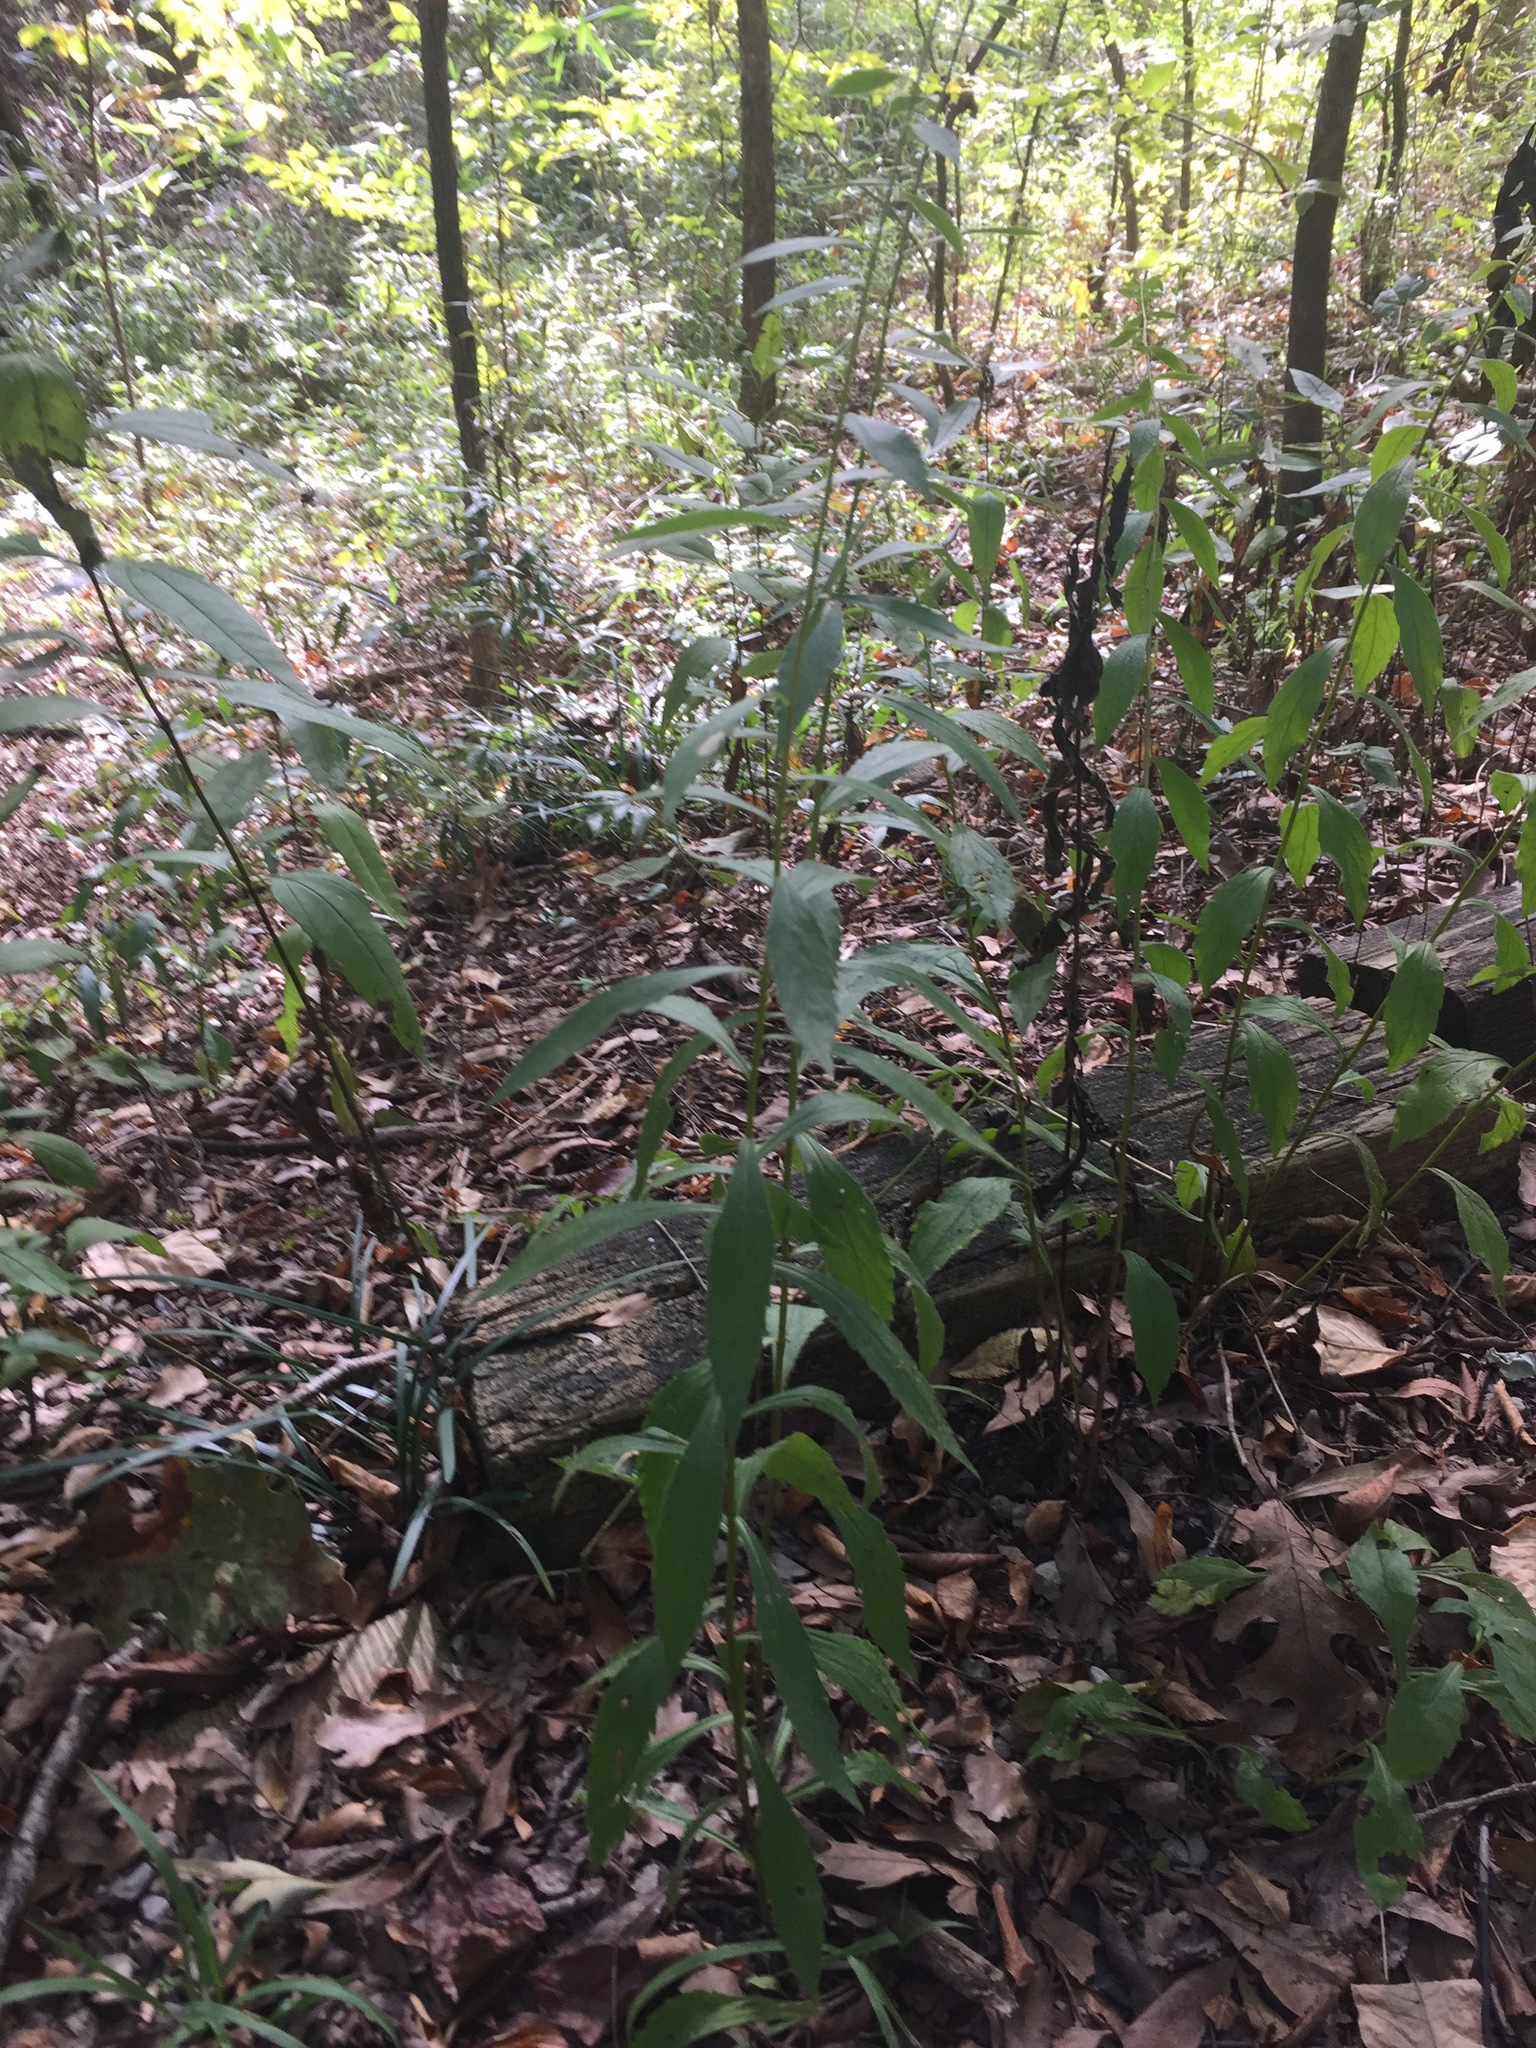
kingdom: Plantae
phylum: Tracheophyta
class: Magnoliopsida
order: Asterales
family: Asteraceae
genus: Solidago
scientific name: Solidago ulmifolia
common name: Elm-leaf goldenrod
